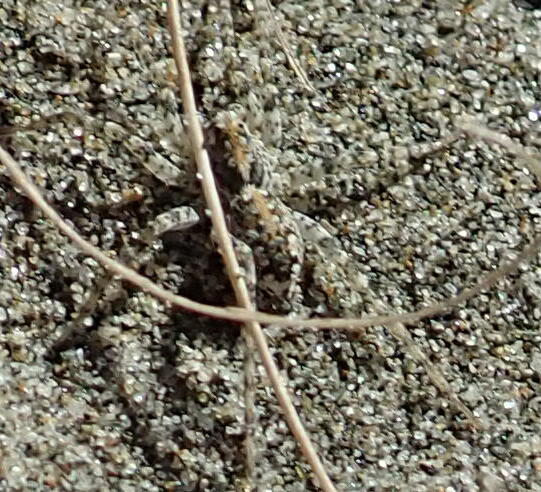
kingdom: Animalia
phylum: Arthropoda
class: Arachnida
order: Araneae
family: Lycosidae
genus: Anoteropsis
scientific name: Anoteropsis litoralis
